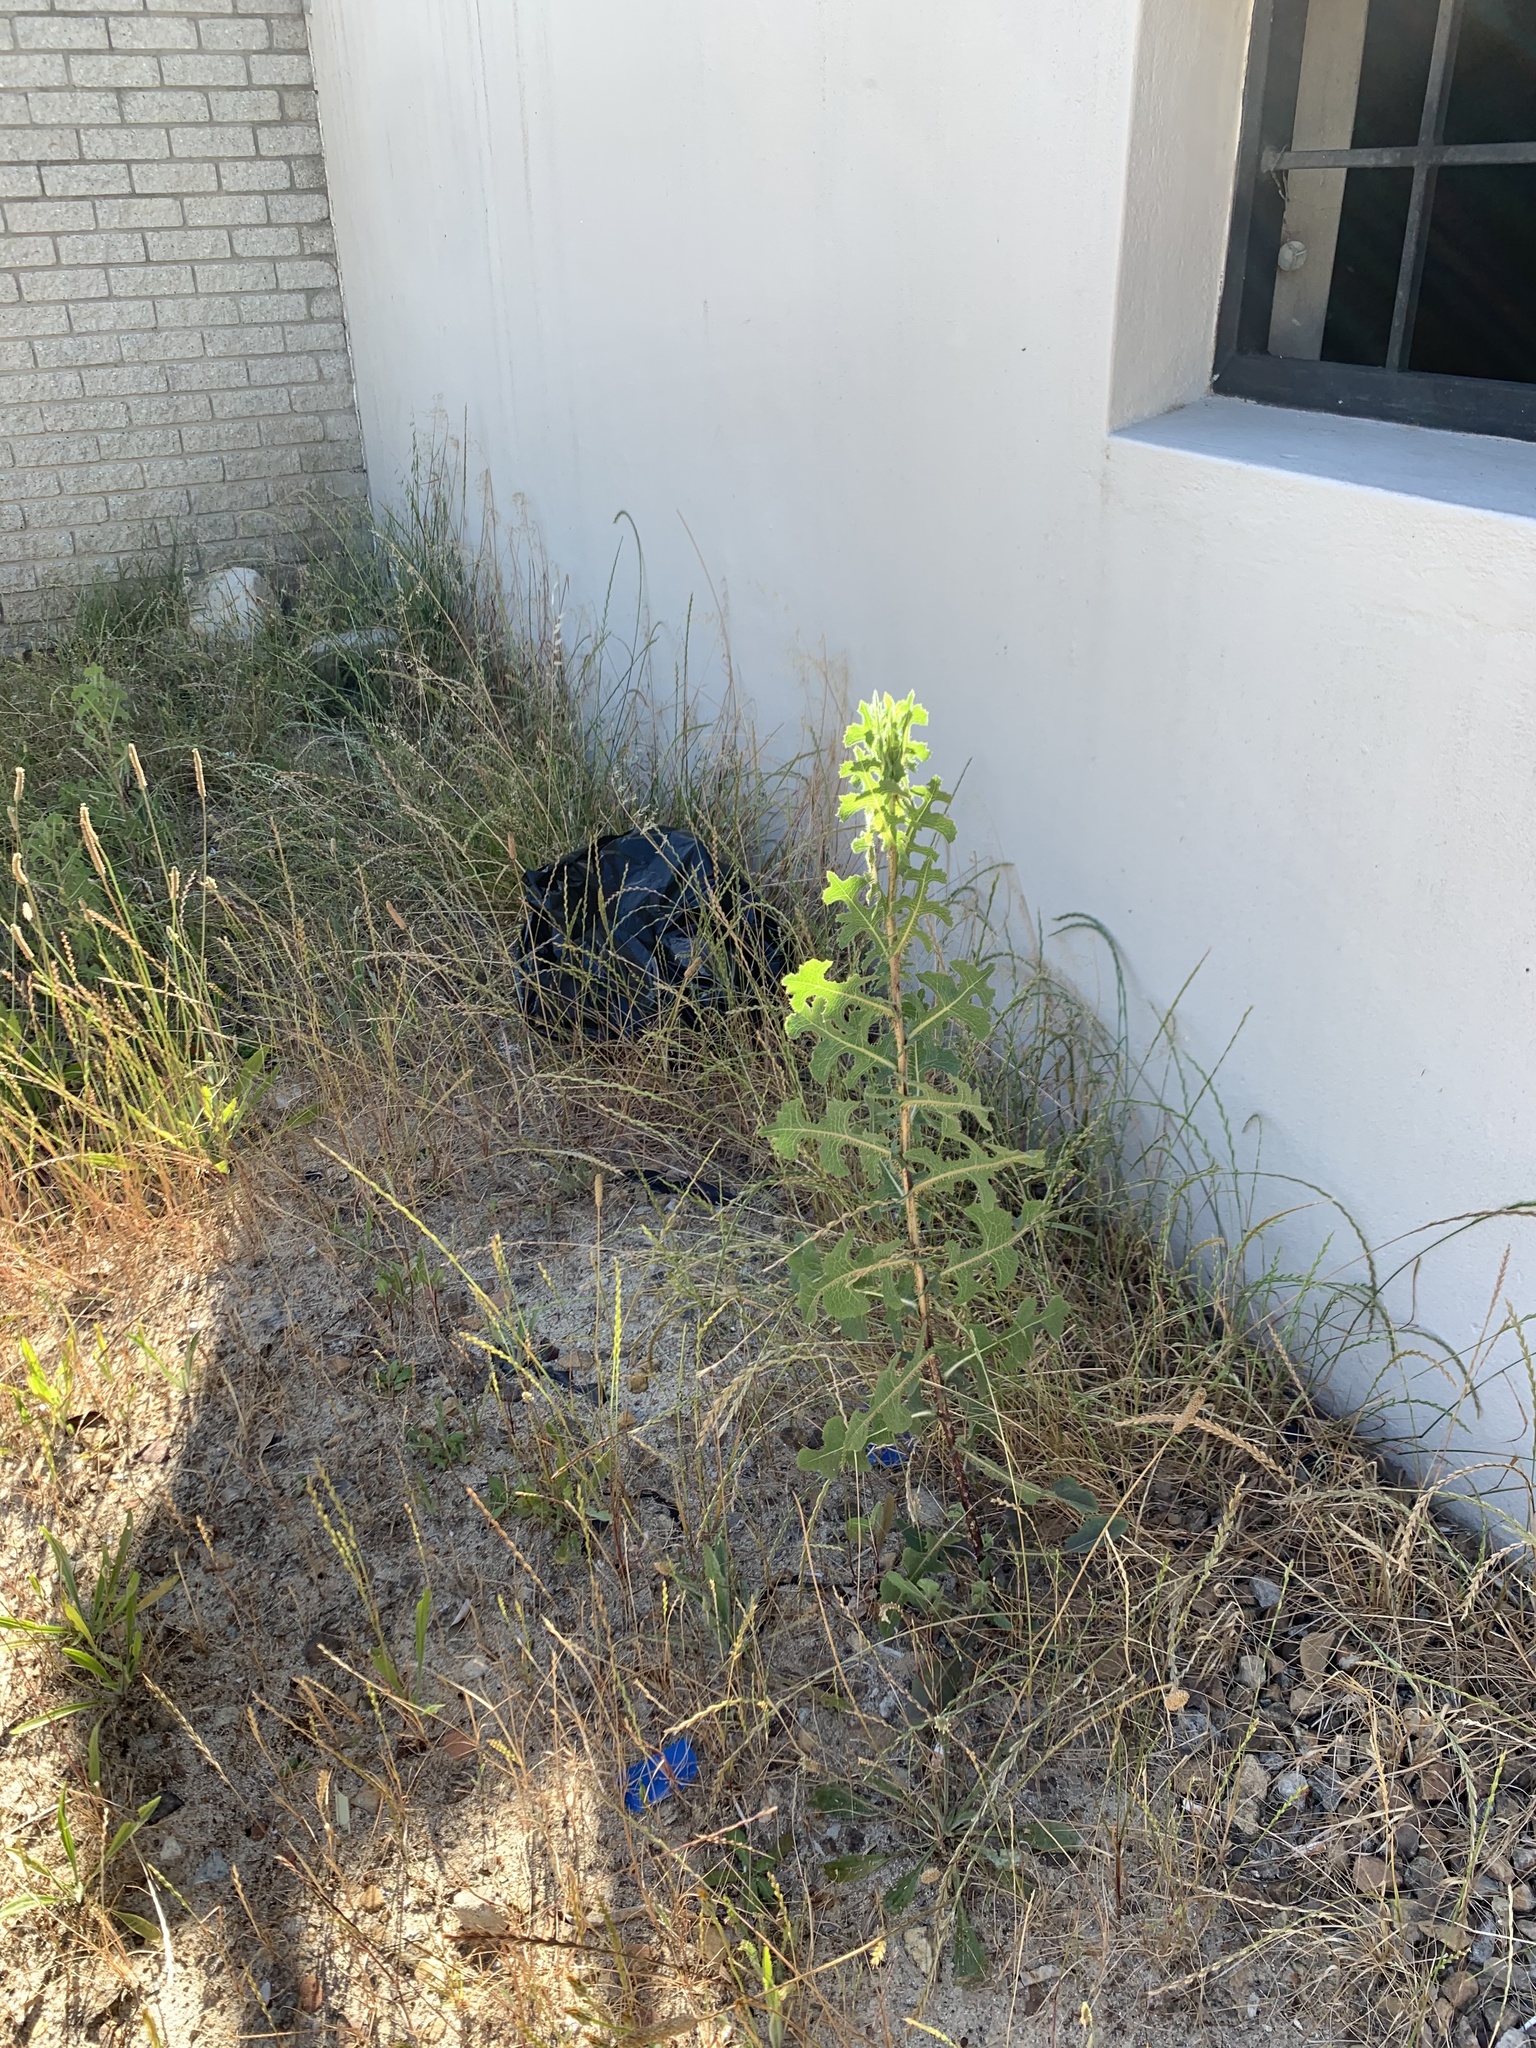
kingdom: Plantae
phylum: Tracheophyta
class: Magnoliopsida
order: Asterales
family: Asteraceae
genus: Lactuca
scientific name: Lactuca serriola
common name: Prickly lettuce
